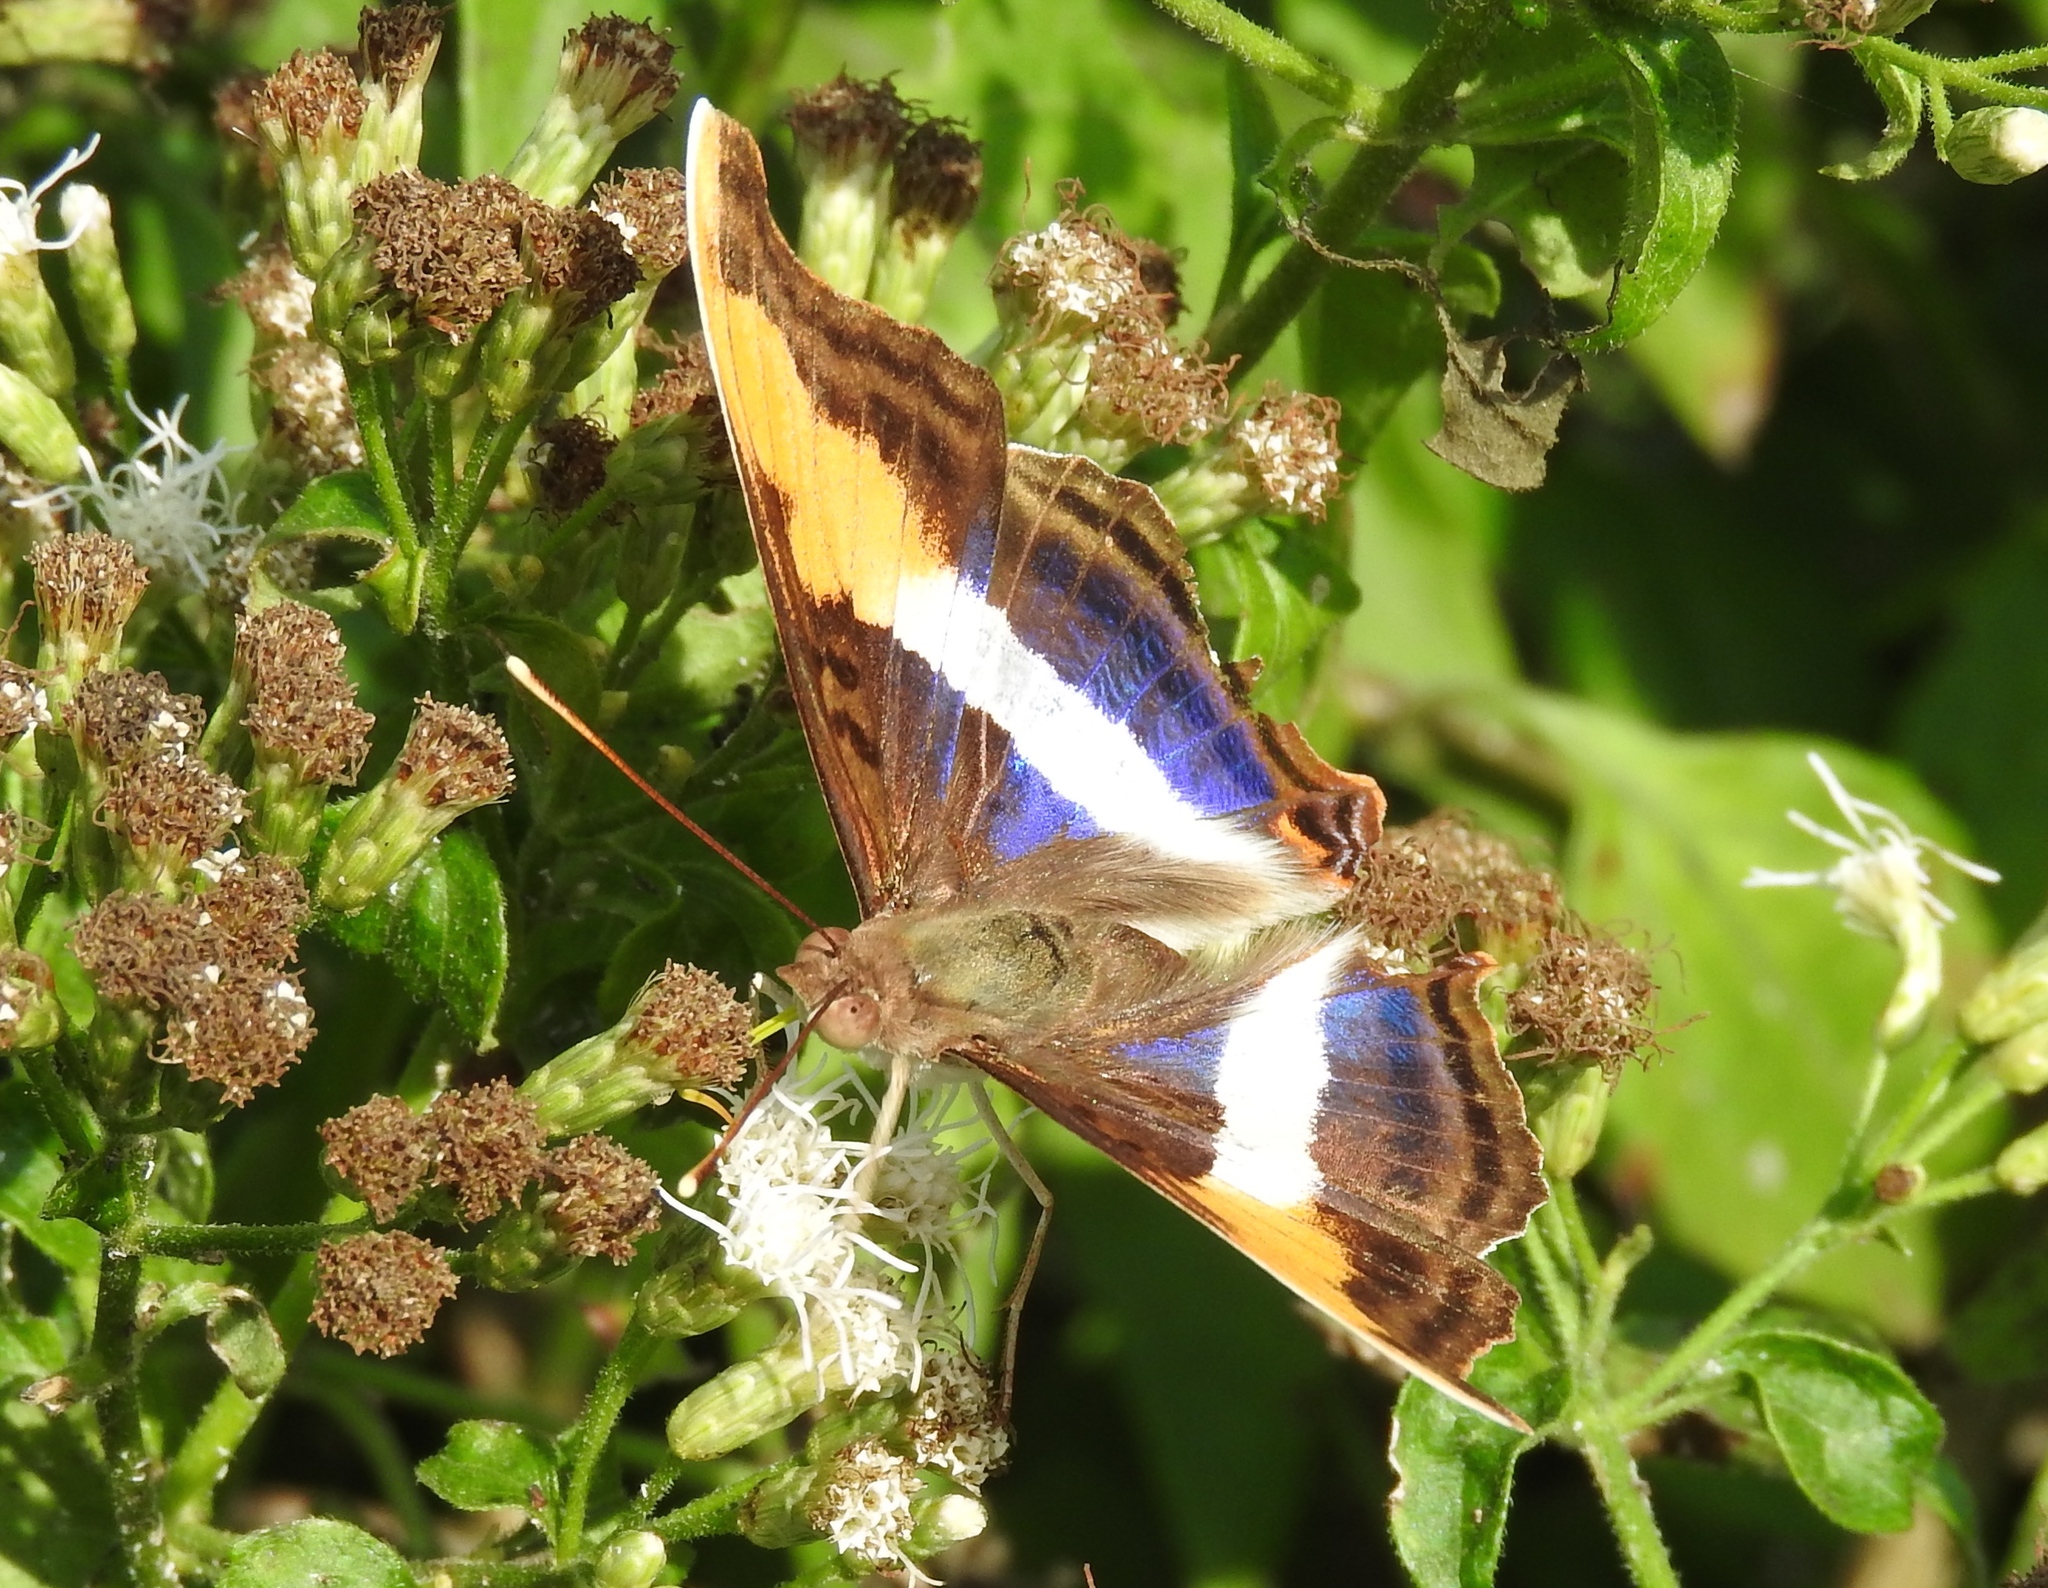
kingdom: Animalia
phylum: Arthropoda
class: Insecta
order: Lepidoptera
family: Nymphalidae
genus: Doxocopa
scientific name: Doxocopa laure
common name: Silver emperor
